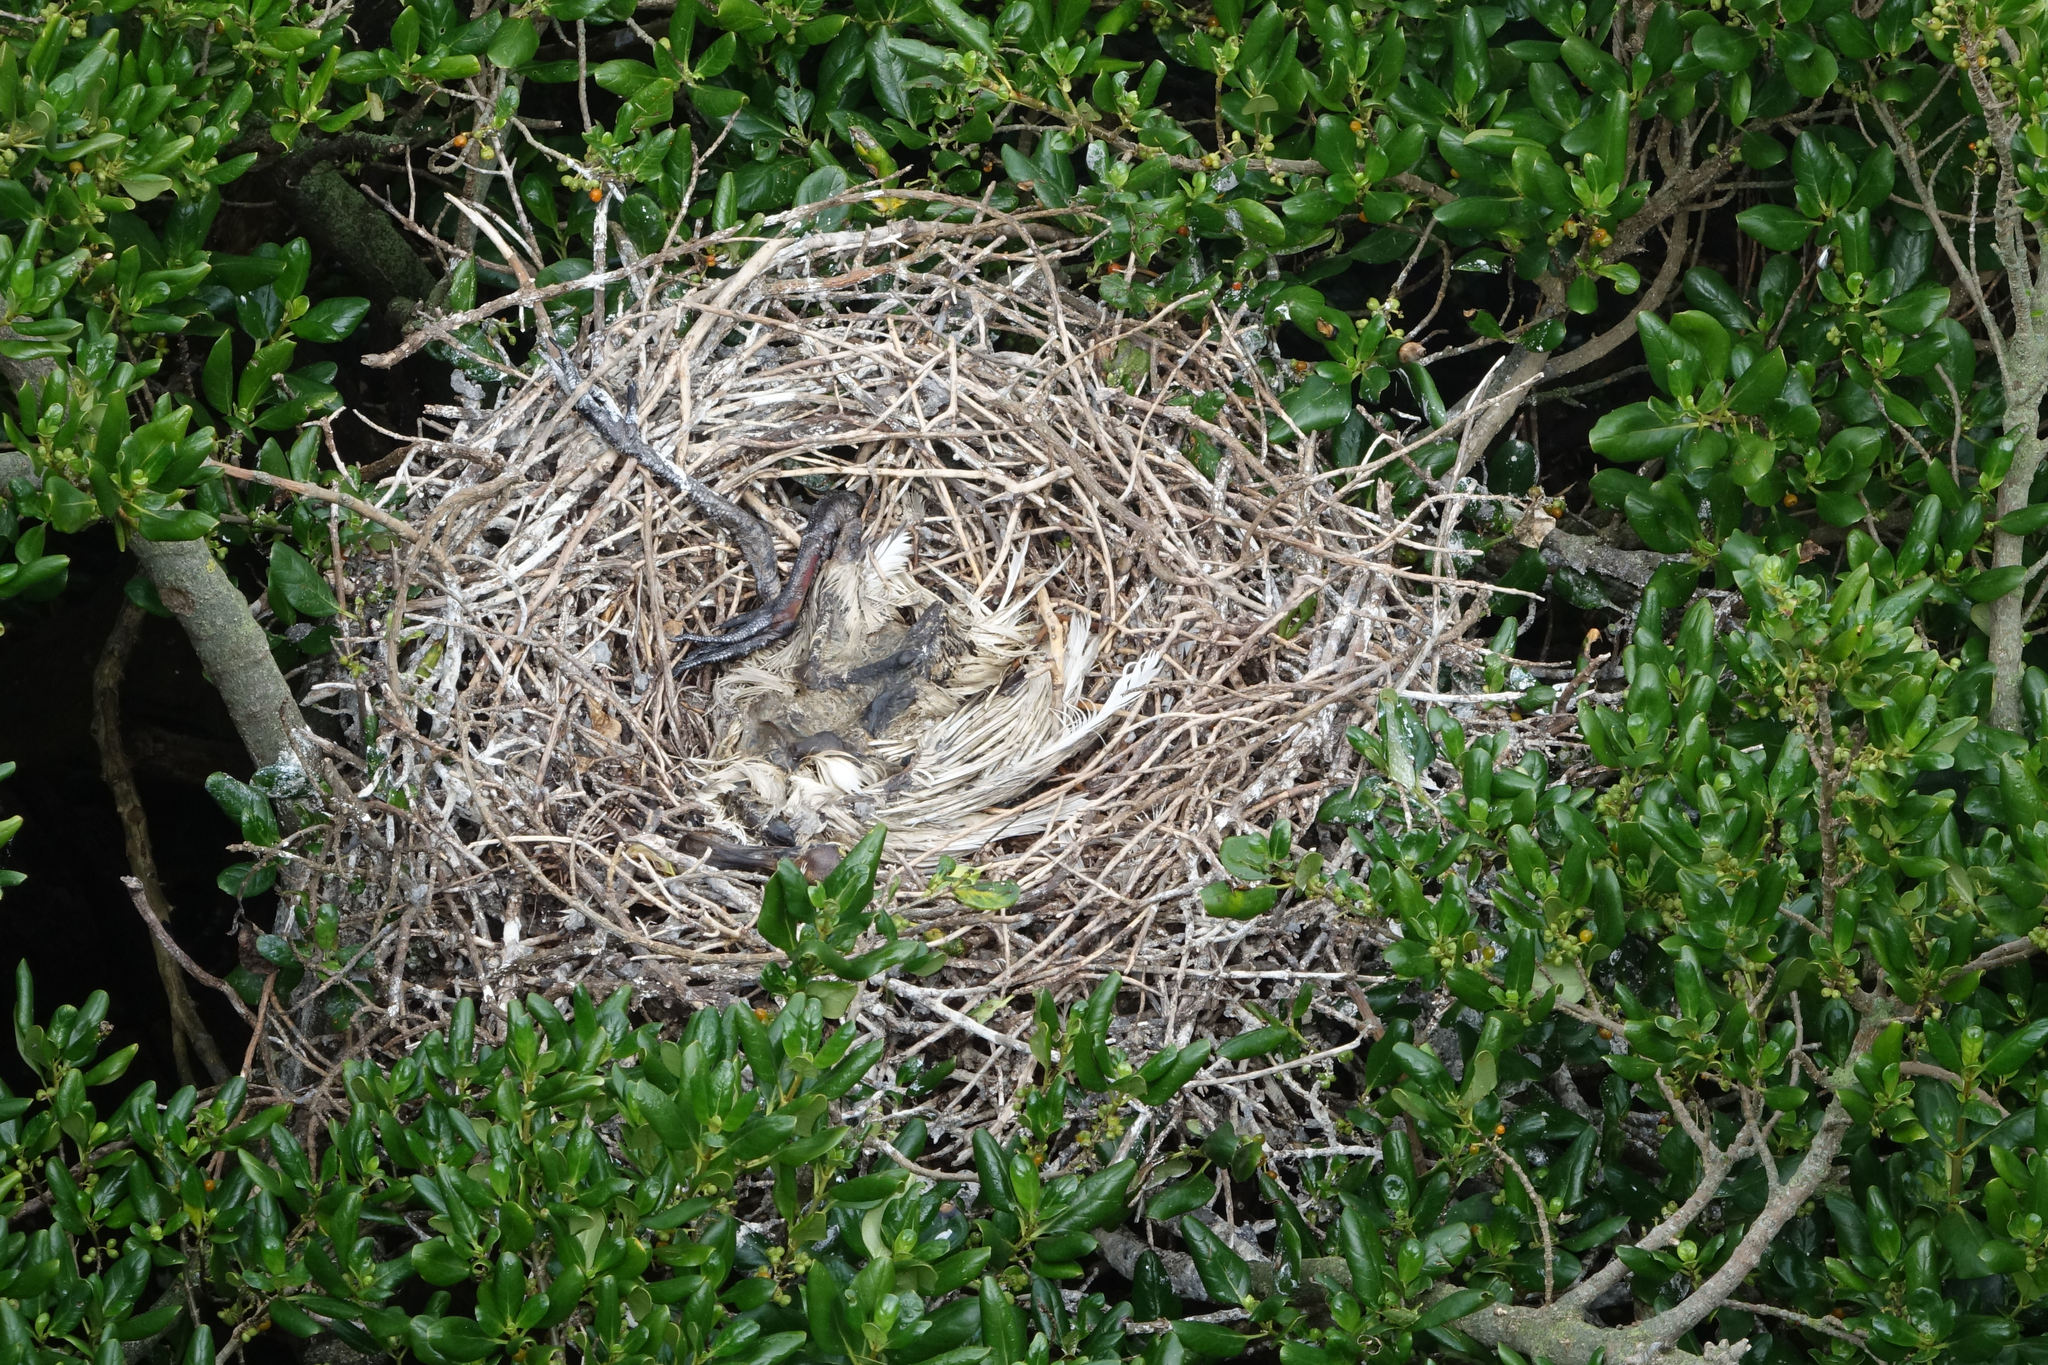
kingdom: Animalia
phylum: Chordata
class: Aves
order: Pelecaniformes
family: Threskiornithidae
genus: Platalea
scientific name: Platalea regia
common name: Royal spoonbill
